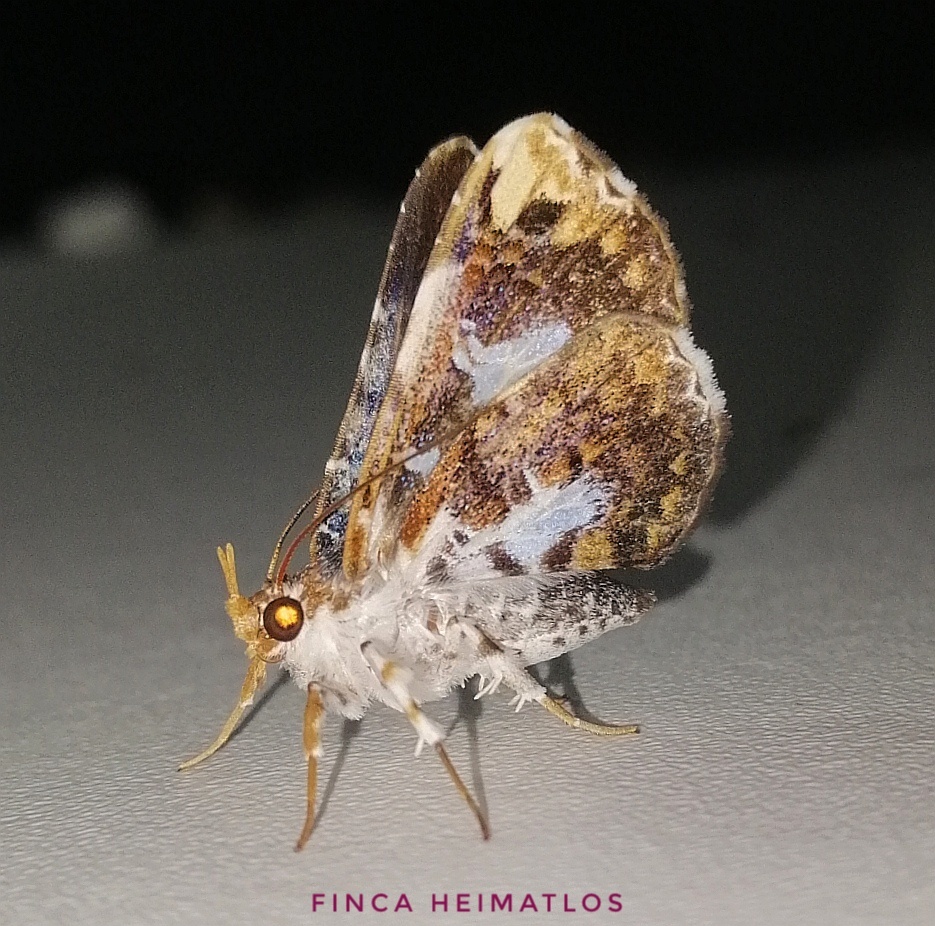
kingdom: Animalia
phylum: Arthropoda
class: Insecta
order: Lepidoptera
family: Erebidae
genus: Pseudogerespa
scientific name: Pseudogerespa usipetes
